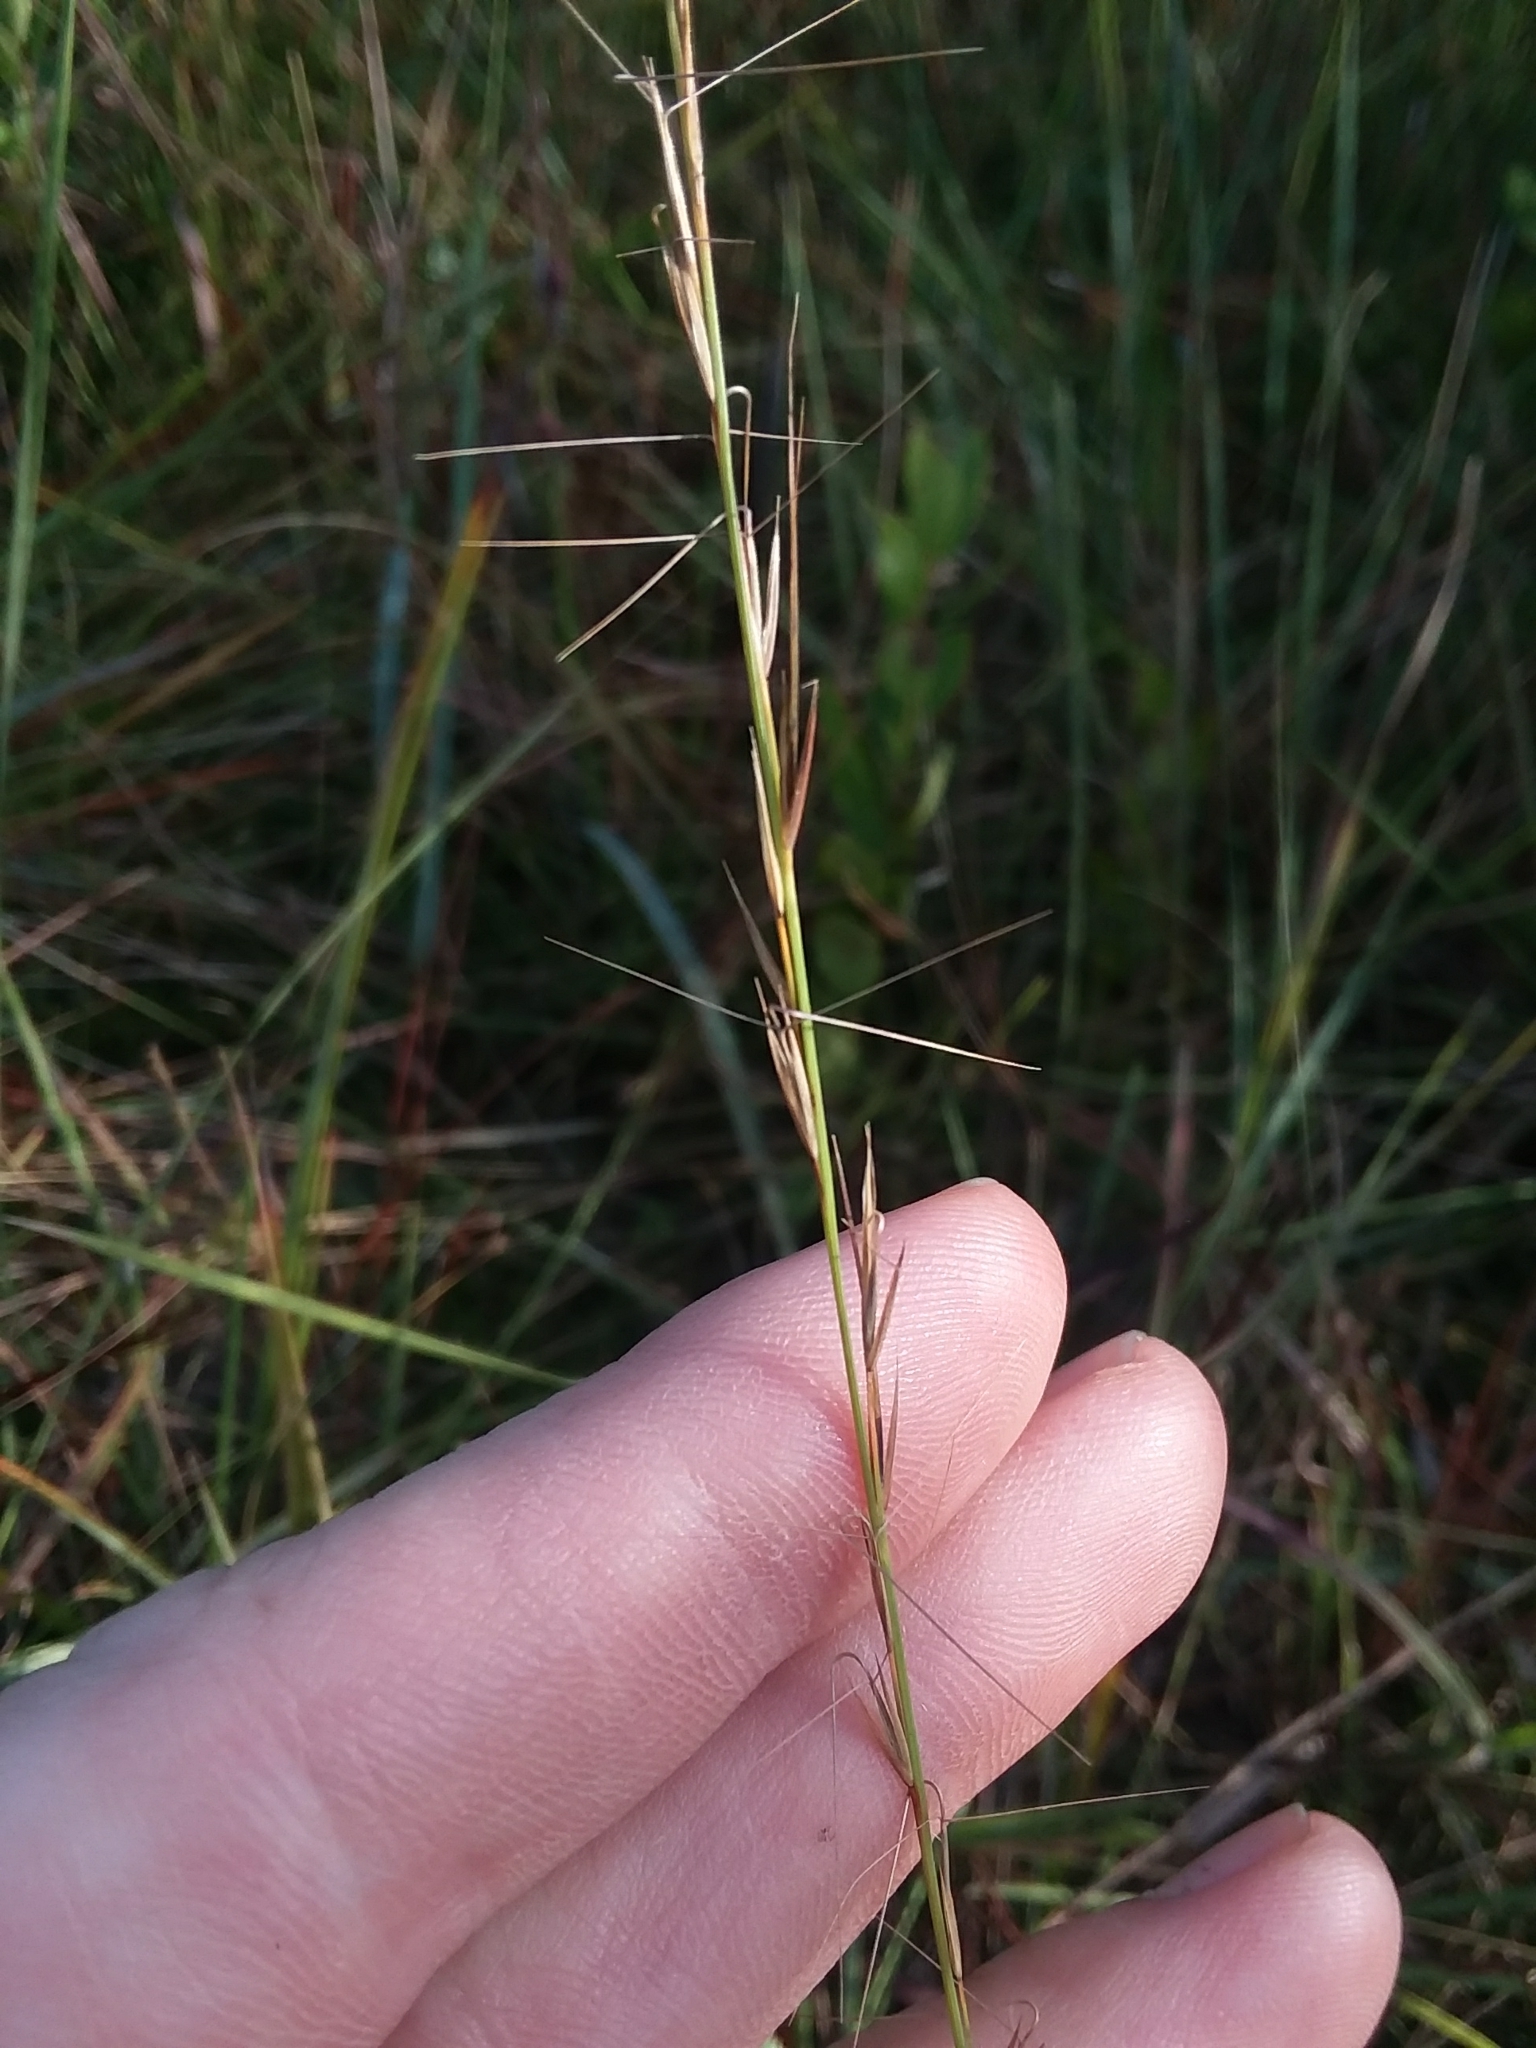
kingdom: Plantae
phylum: Tracheophyta
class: Liliopsida
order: Poales
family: Poaceae
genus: Aristida
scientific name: Aristida simpliciflora
